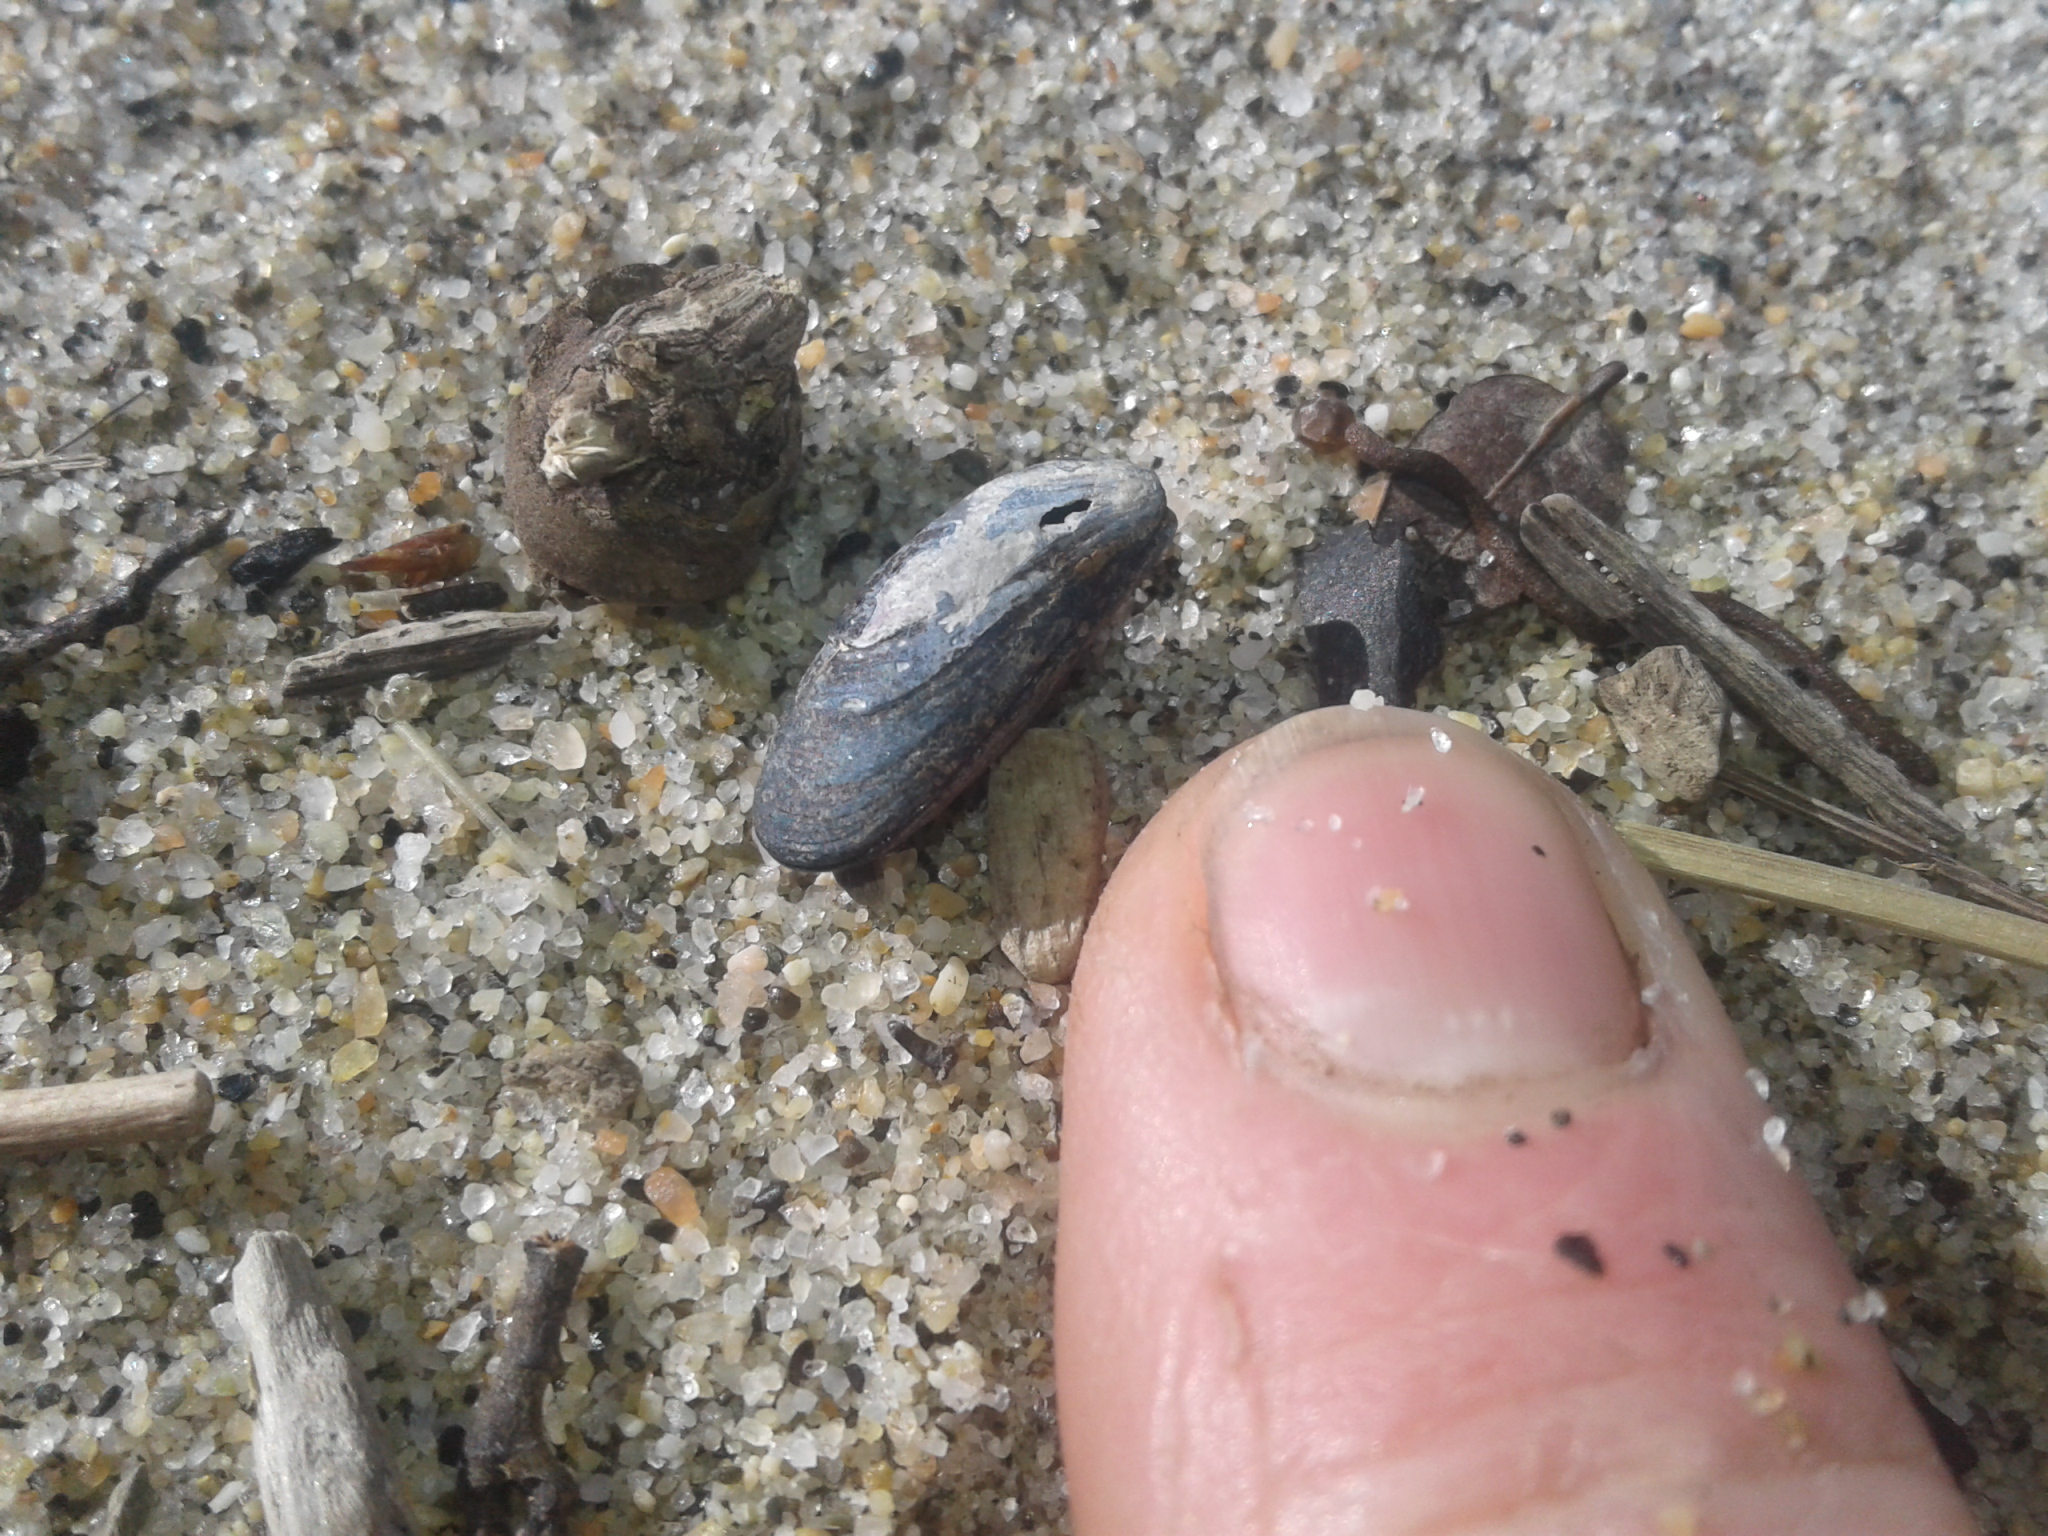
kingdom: Animalia
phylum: Mollusca
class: Bivalvia
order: Mytilida
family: Mytilidae
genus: Xenostrobus
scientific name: Xenostrobus neozelanicus
